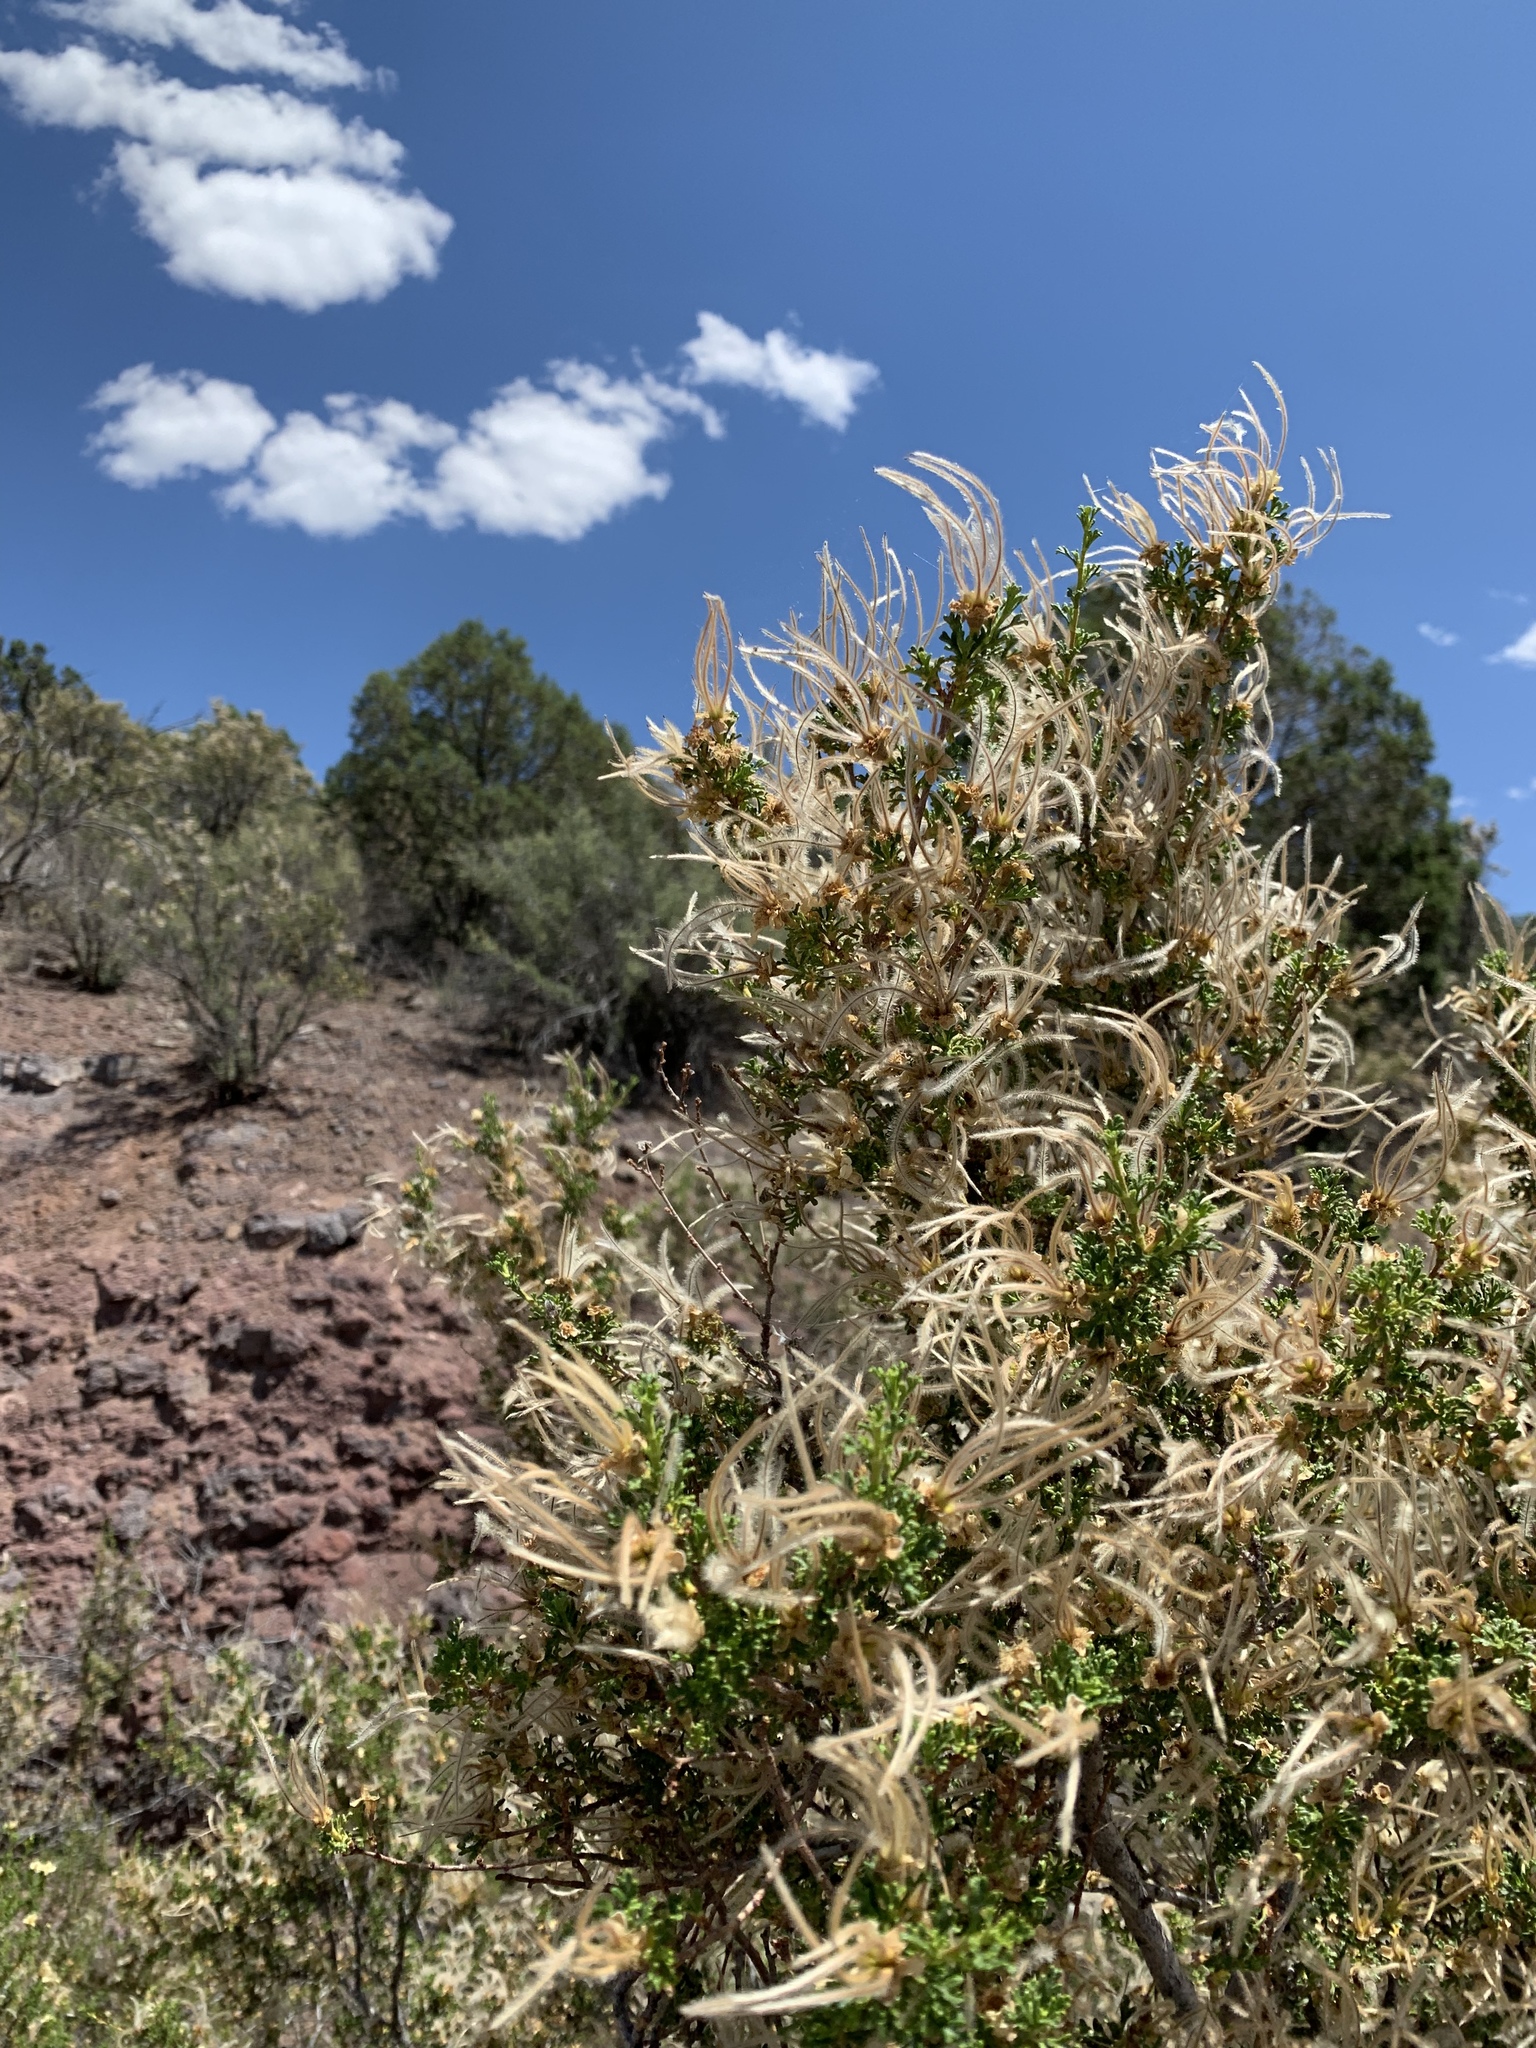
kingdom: Plantae
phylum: Tracheophyta
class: Magnoliopsida
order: Rosales
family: Rosaceae
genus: Purshia
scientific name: Purshia stansburiana
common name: Stansbury's cliffrose
